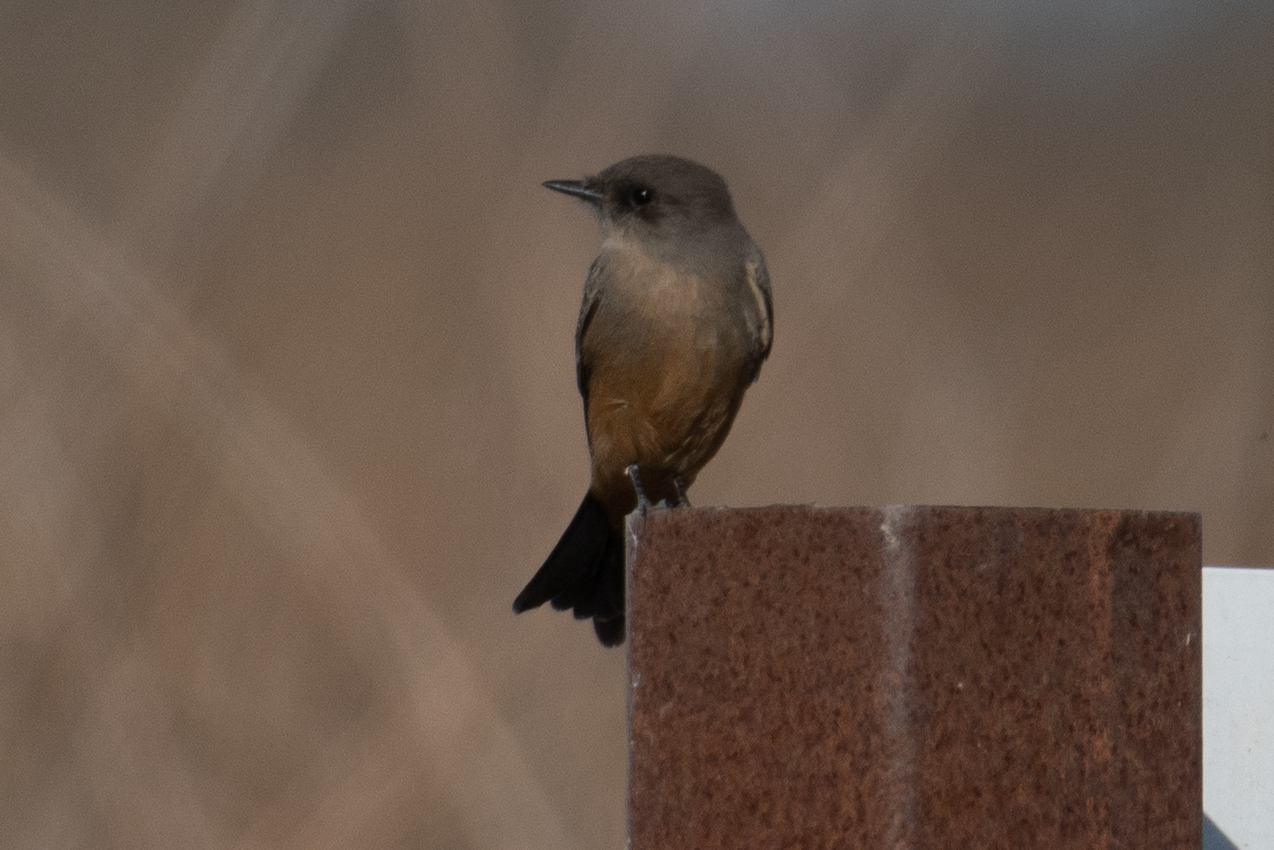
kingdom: Animalia
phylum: Chordata
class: Aves
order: Passeriformes
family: Tyrannidae
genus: Sayornis
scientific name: Sayornis saya
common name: Say's phoebe
